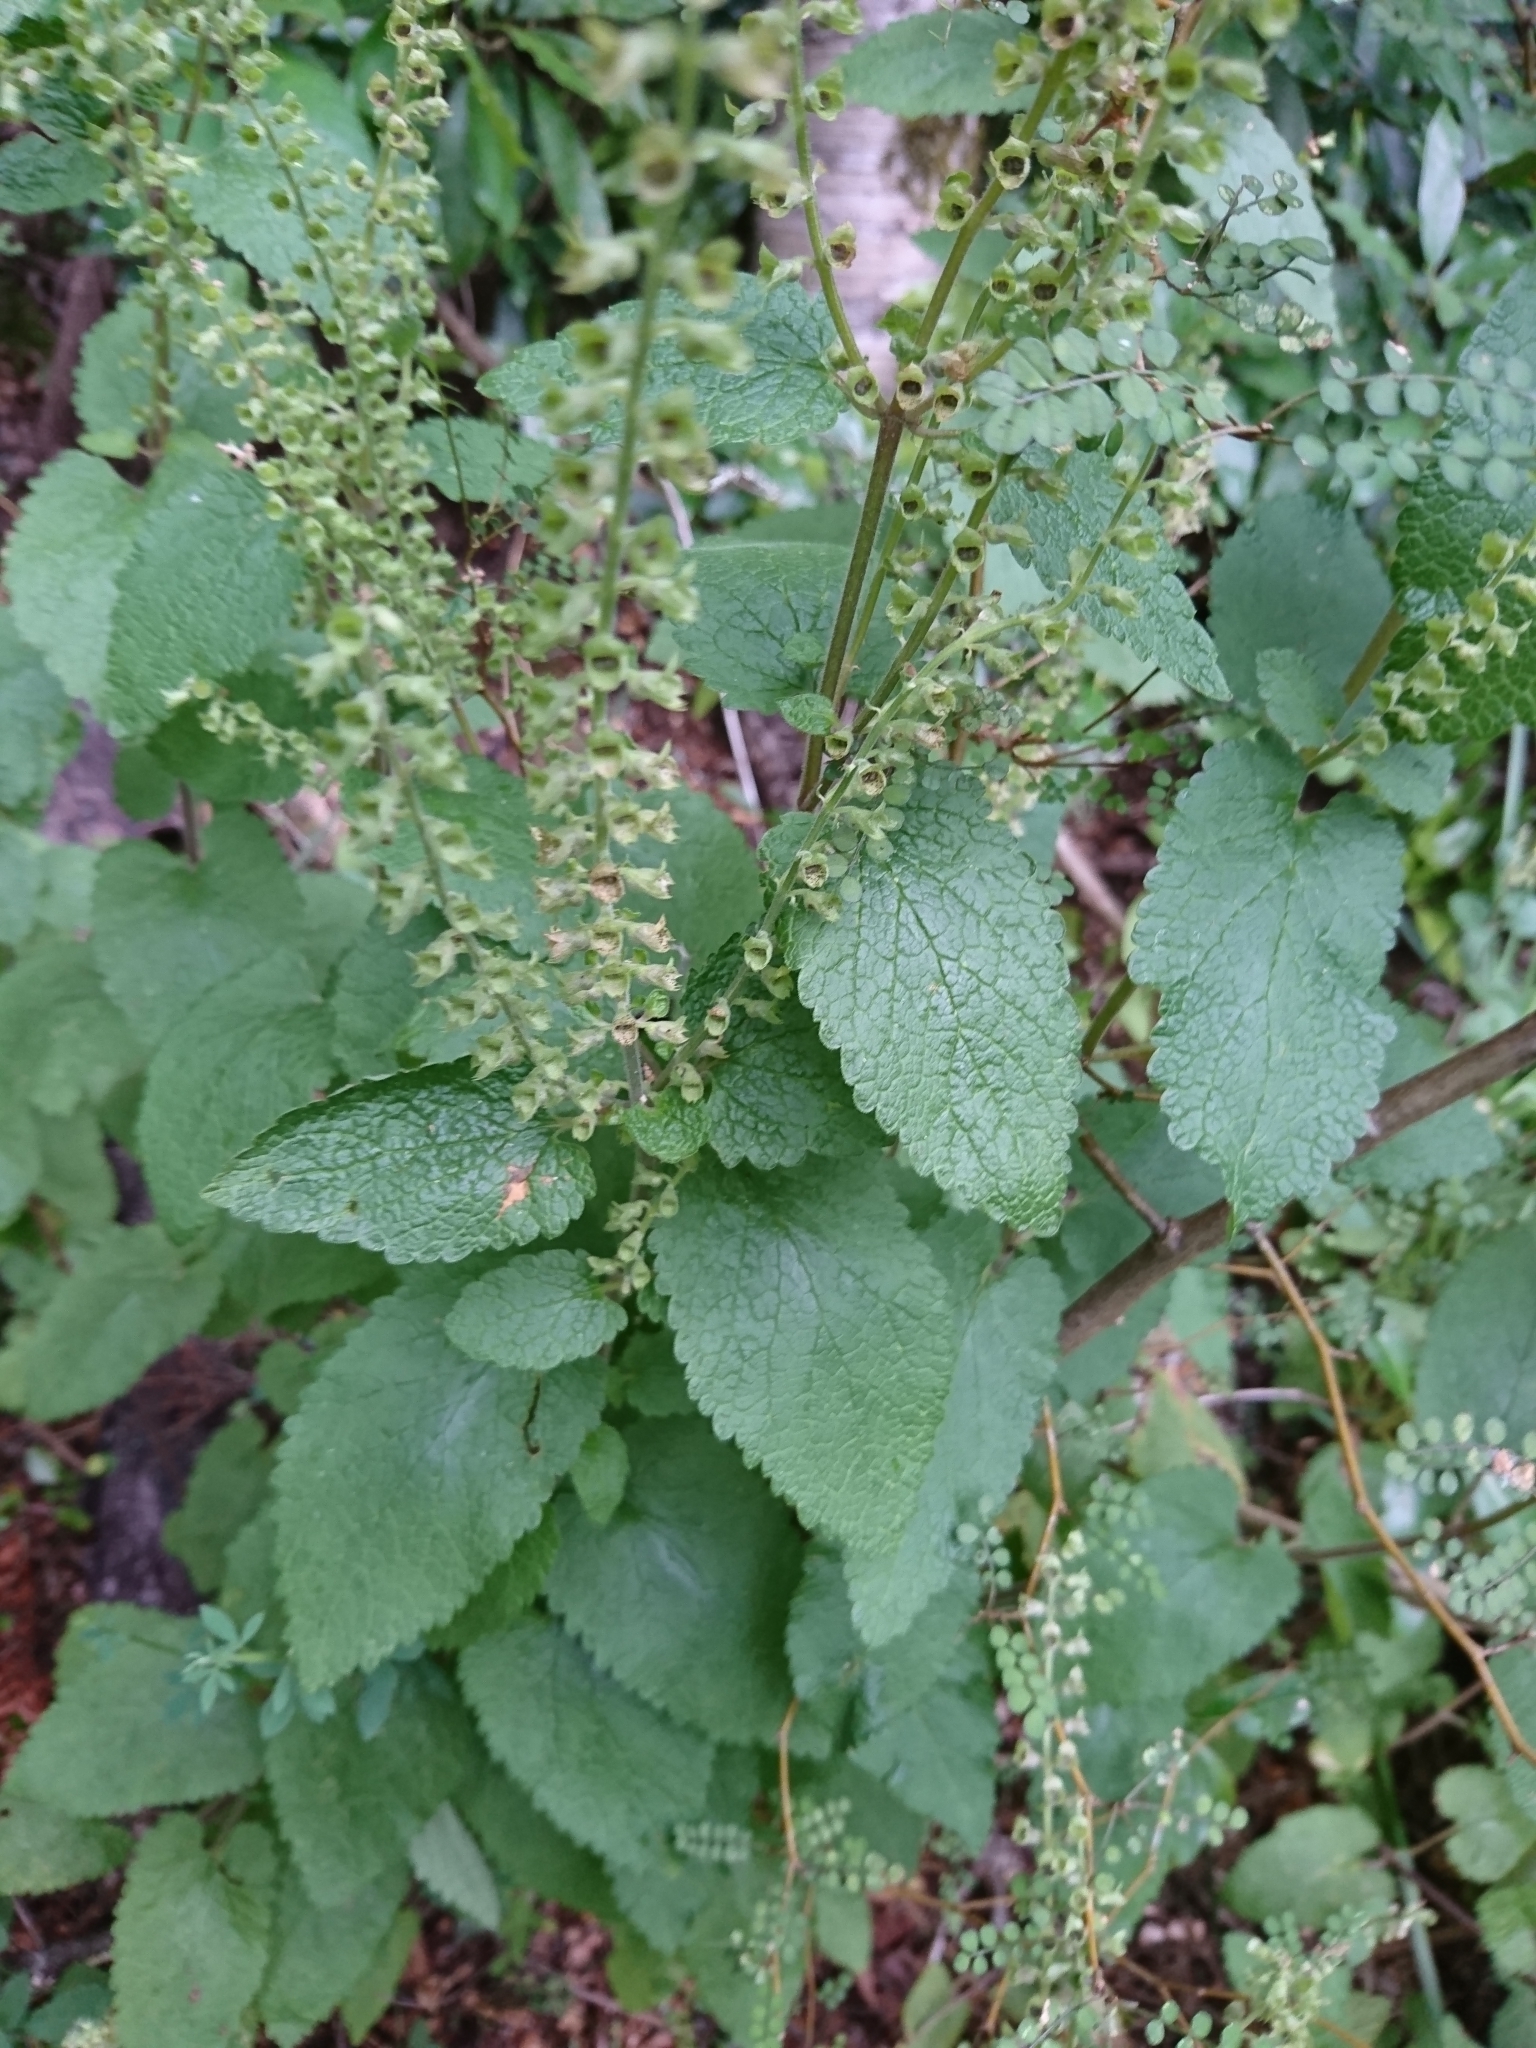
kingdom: Plantae
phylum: Tracheophyta
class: Magnoliopsida
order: Lamiales
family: Lamiaceae
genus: Stachys
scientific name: Stachys sylvatica
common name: Hedge woundwort
